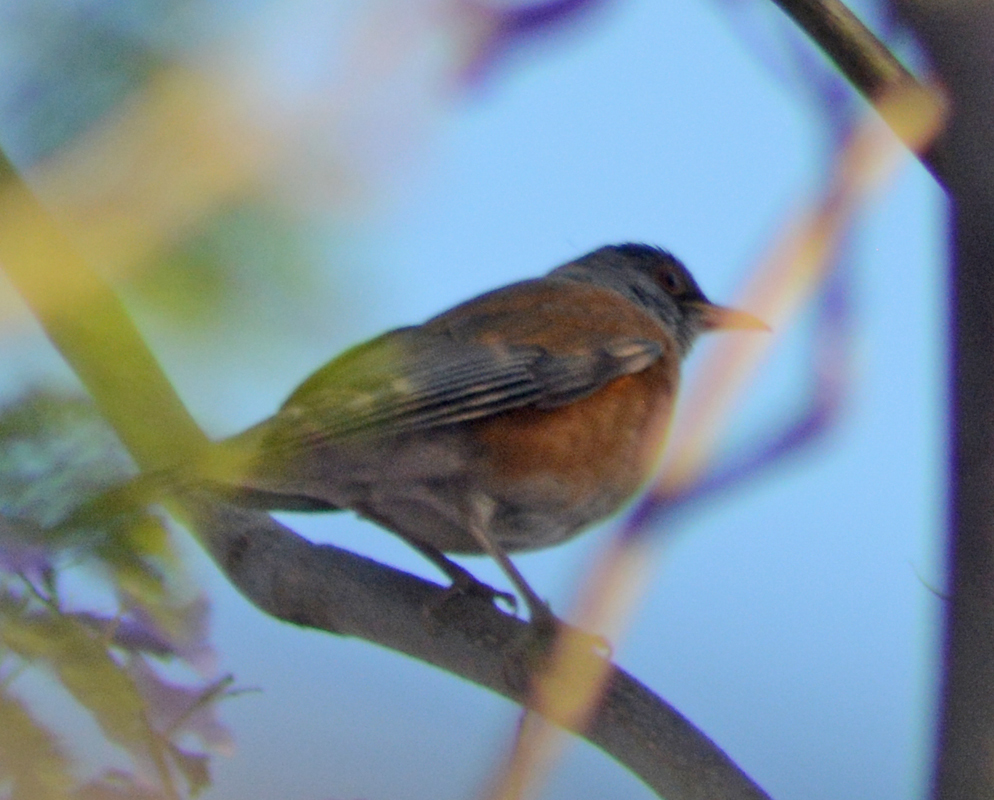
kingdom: Animalia
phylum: Chordata
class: Aves
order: Passeriformes
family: Turdidae
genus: Turdus
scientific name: Turdus rufopalliatus
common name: Rufous-backed robin
